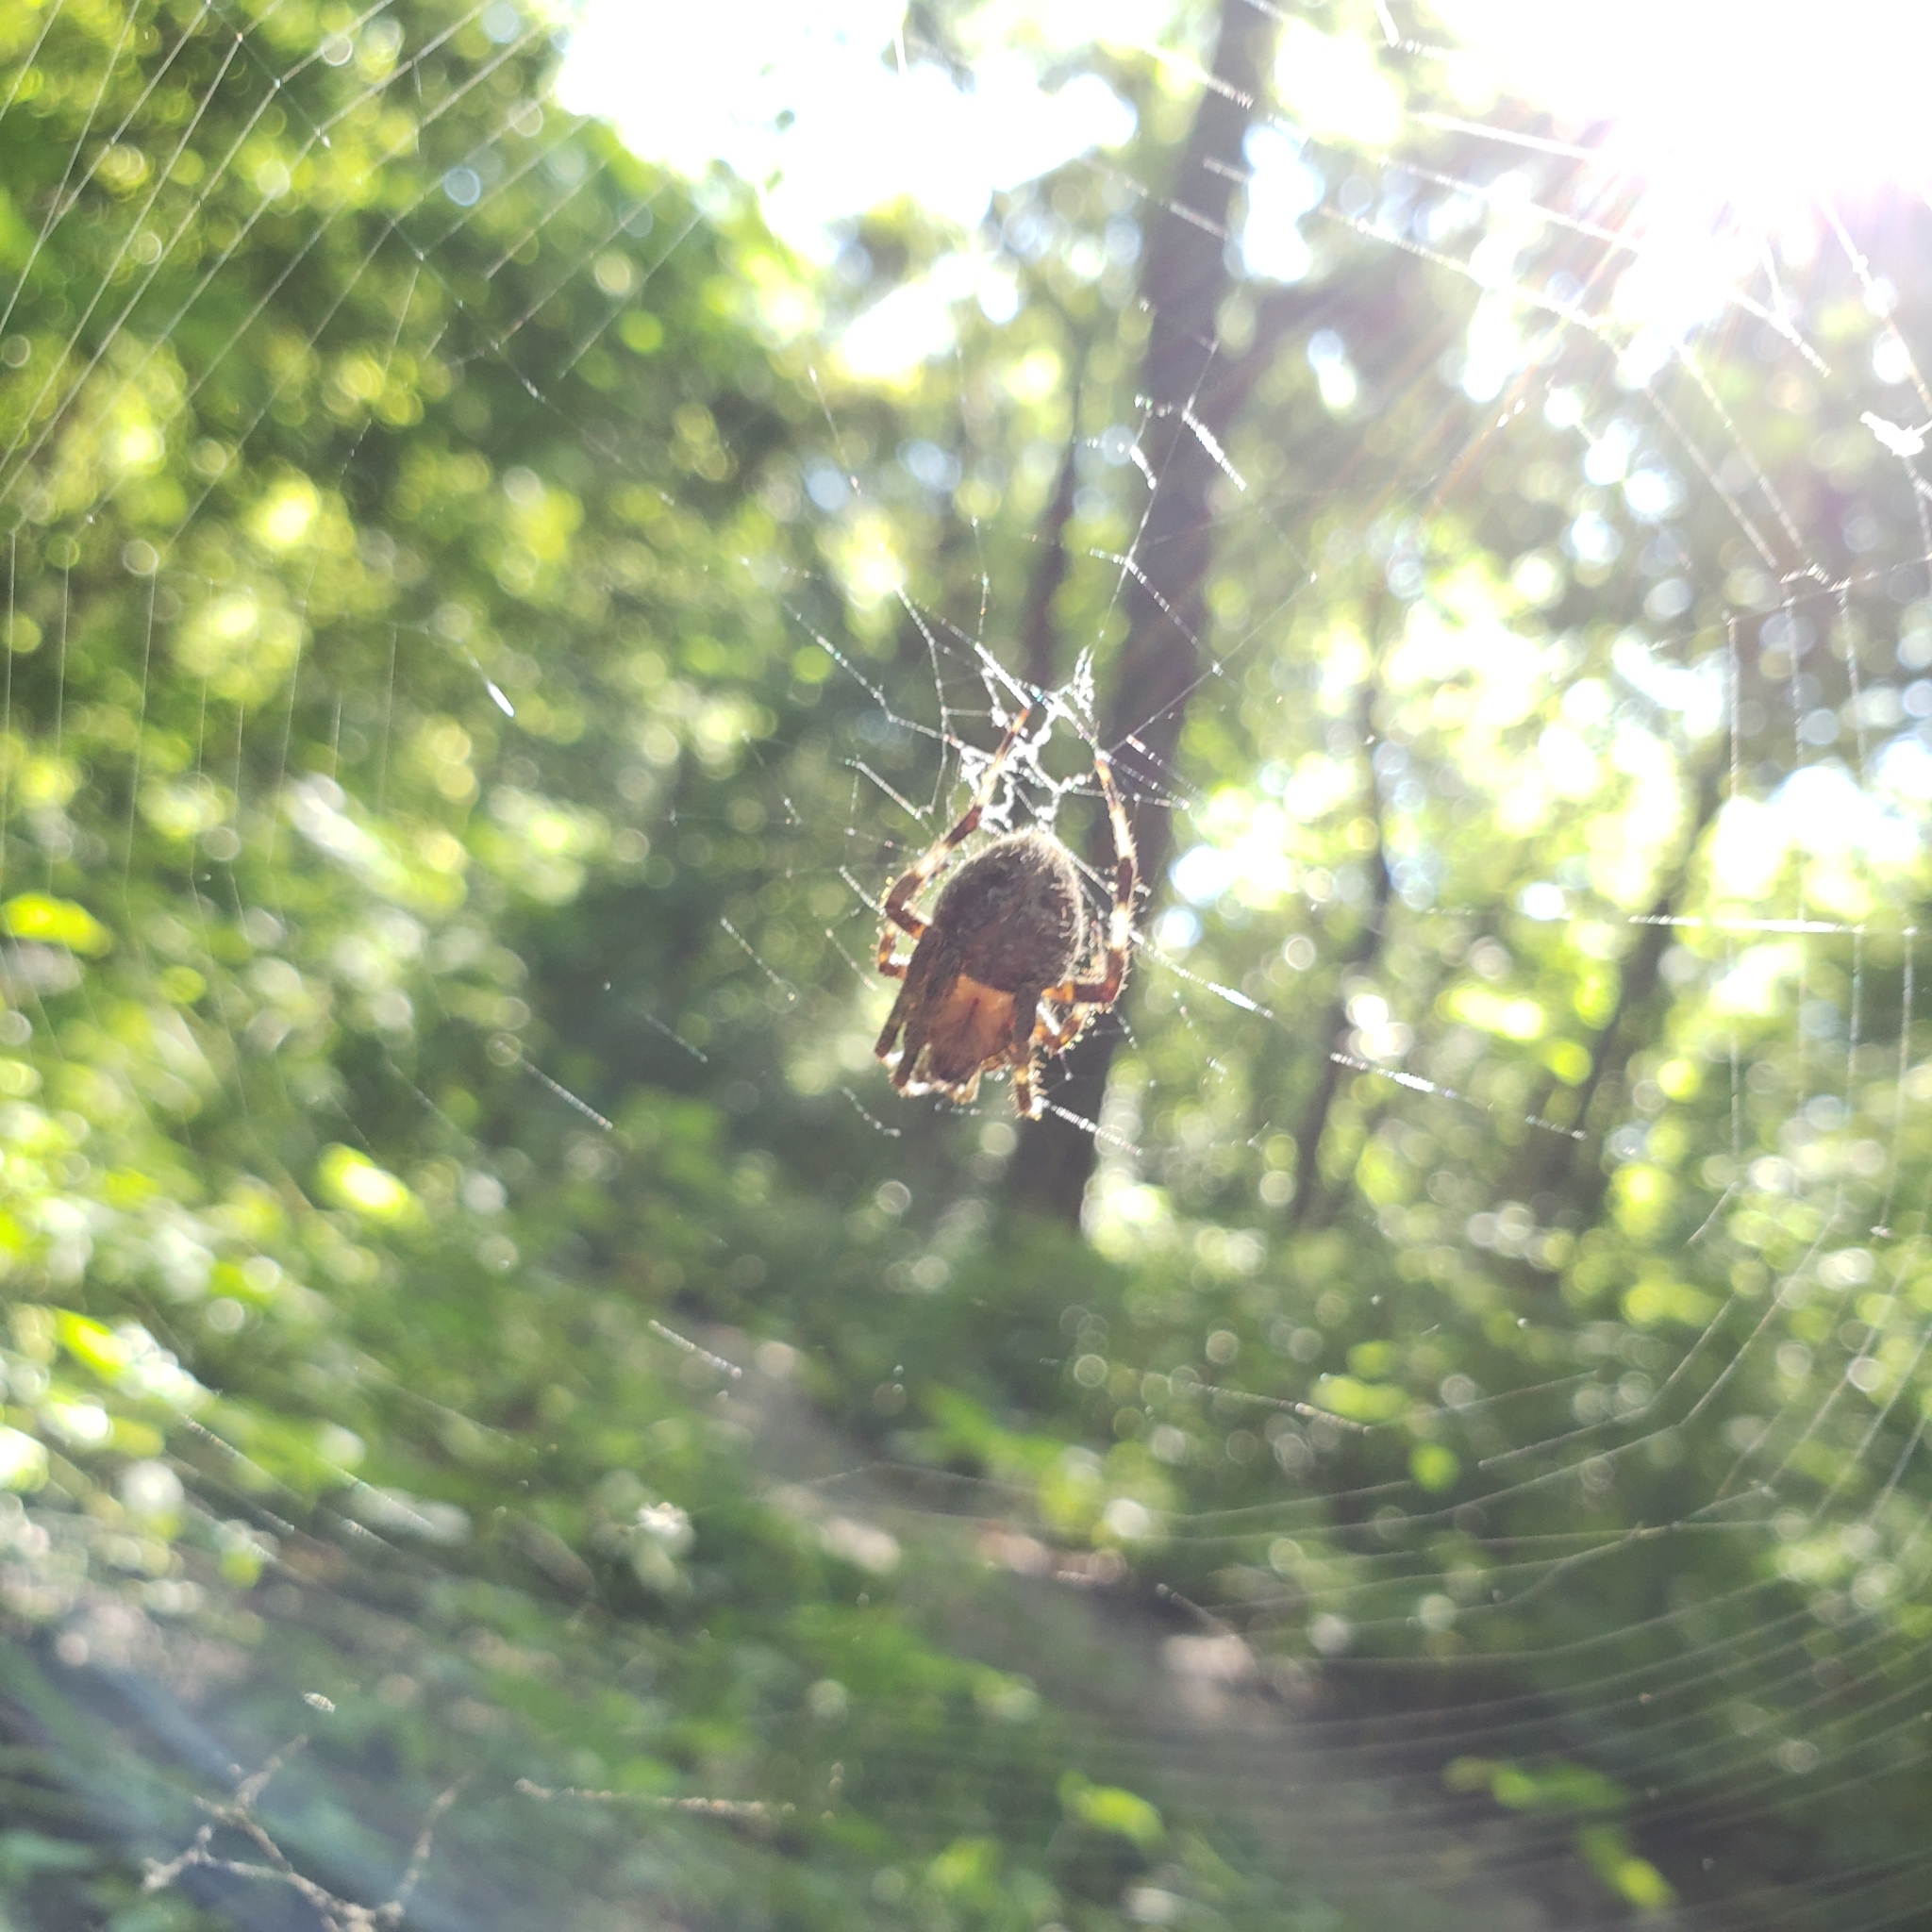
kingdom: Animalia
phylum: Arthropoda
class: Arachnida
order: Araneae
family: Araneidae
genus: Neoscona
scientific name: Neoscona crucifera
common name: Spotted orbweaver
